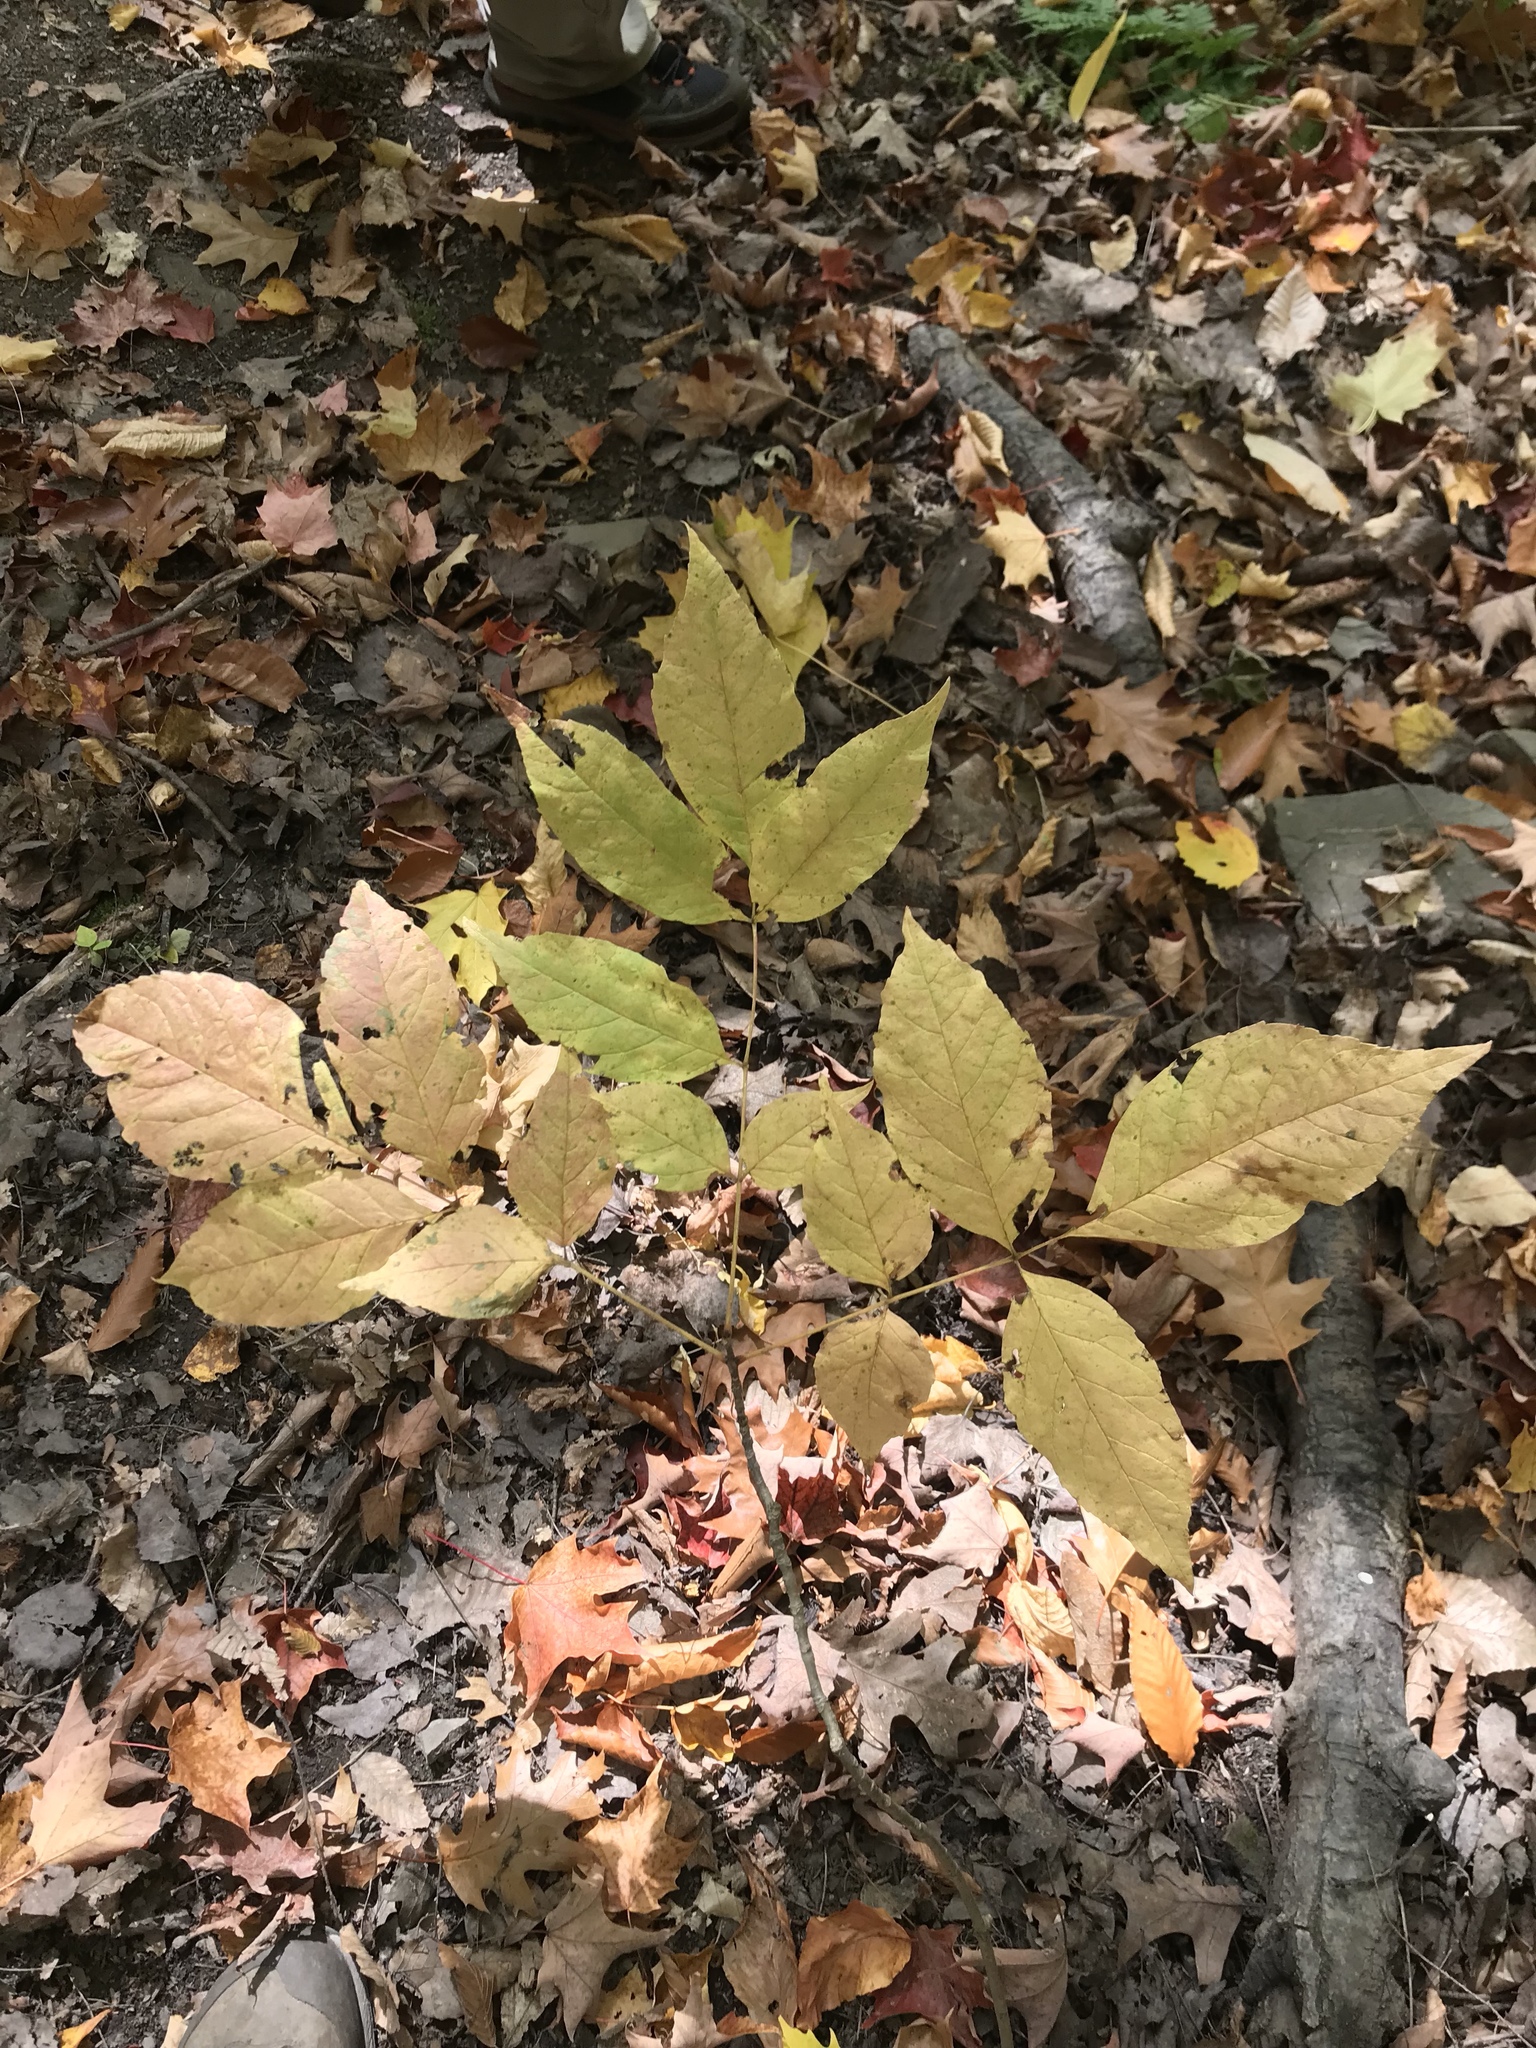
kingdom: Plantae
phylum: Tracheophyta
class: Magnoliopsida
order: Lamiales
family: Oleaceae
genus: Fraxinus
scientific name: Fraxinus americana
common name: White ash
